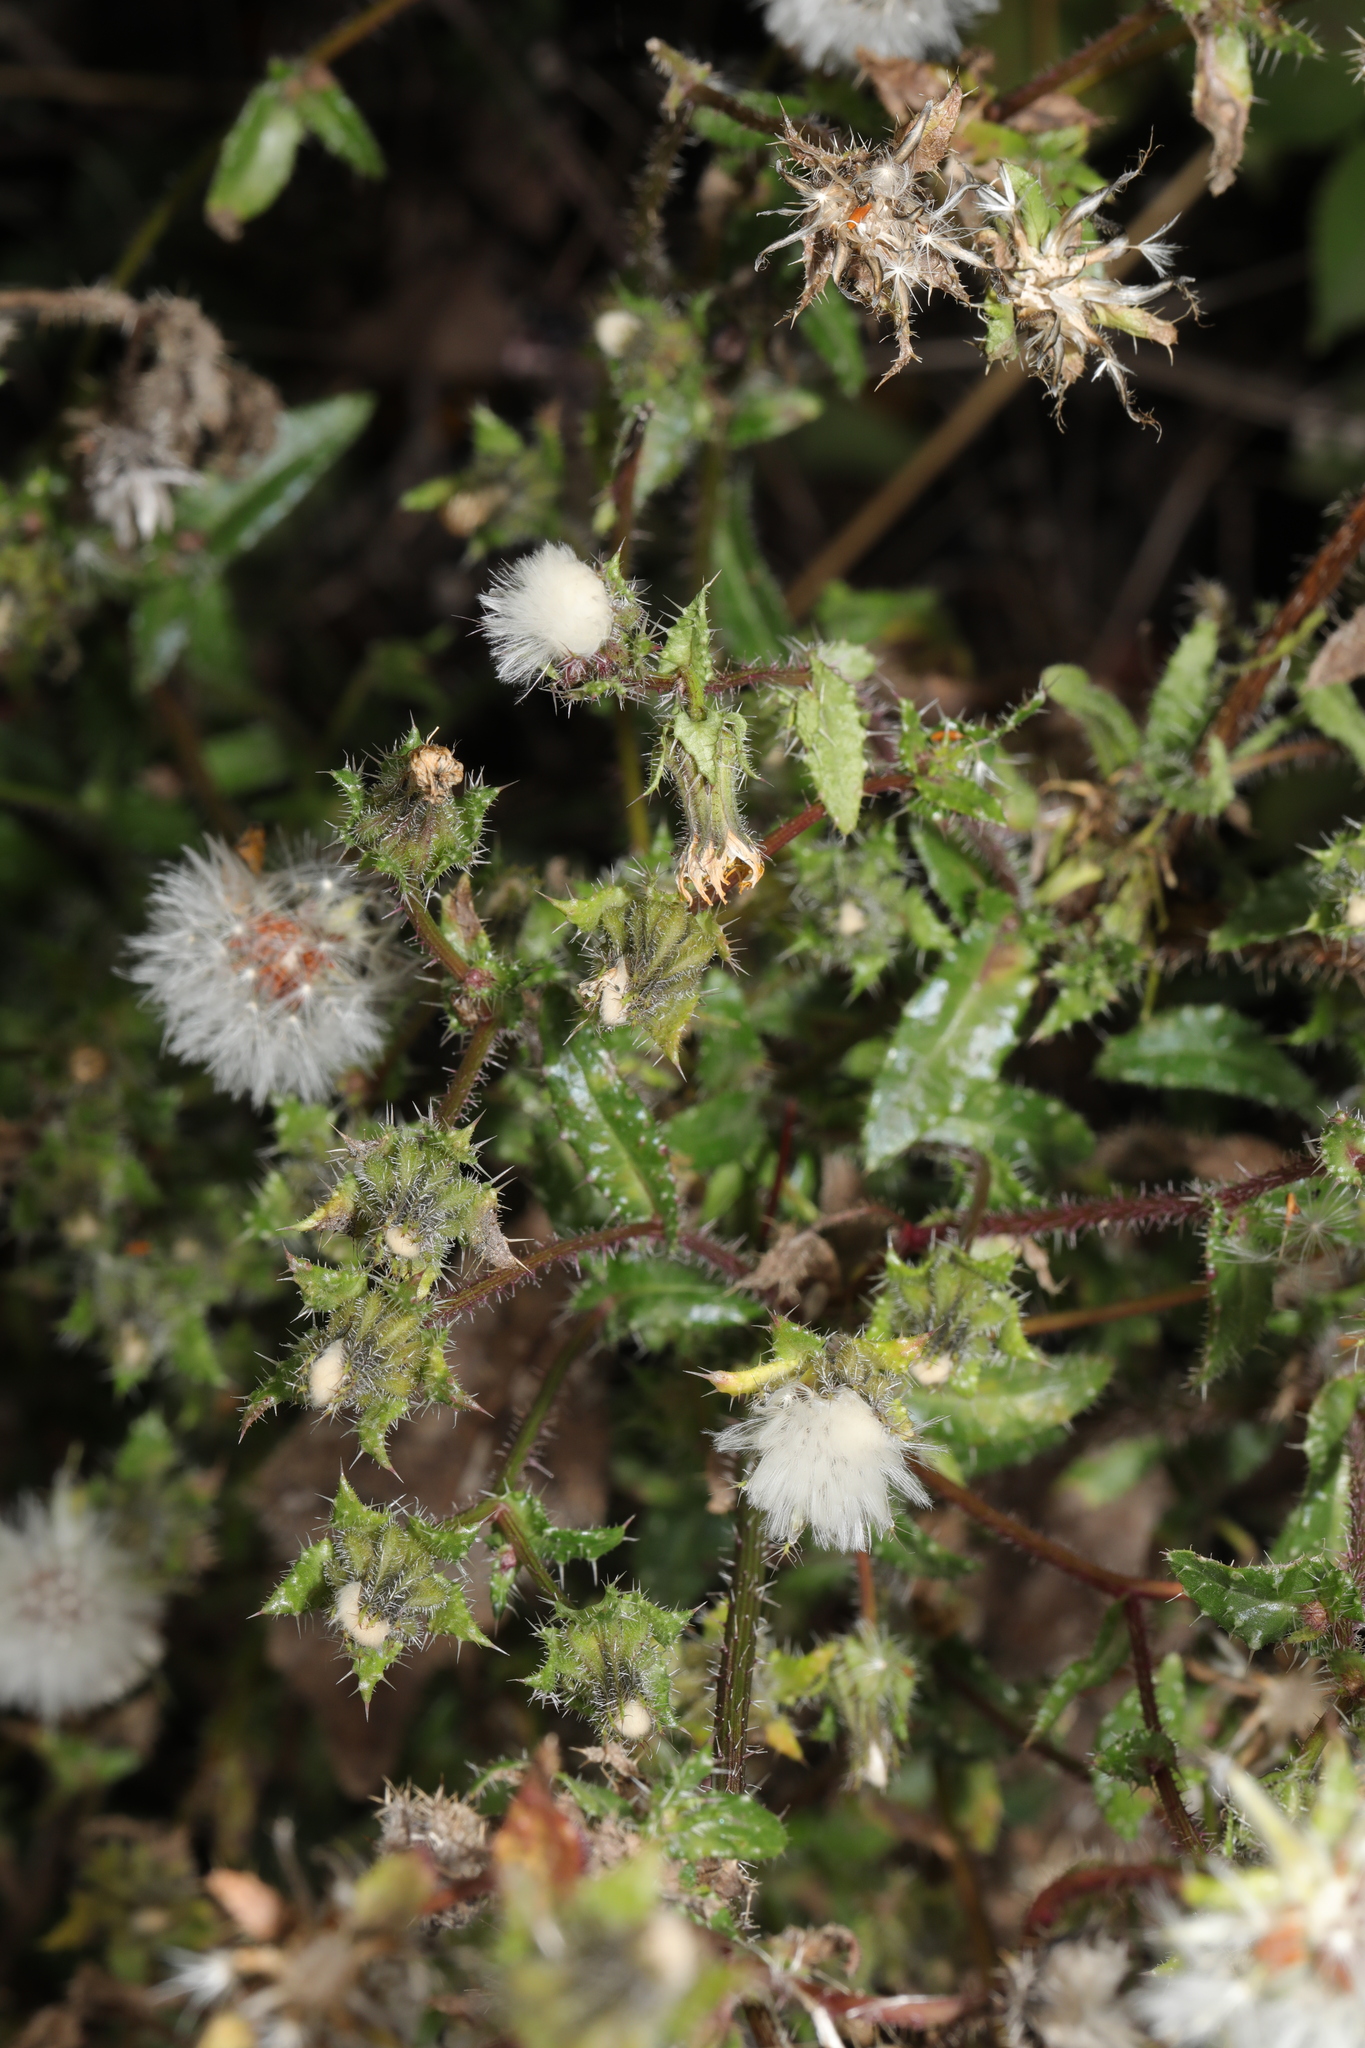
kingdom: Plantae
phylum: Tracheophyta
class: Magnoliopsida
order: Asterales
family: Asteraceae
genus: Helminthotheca
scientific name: Helminthotheca echioides
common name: Ox-tongue
